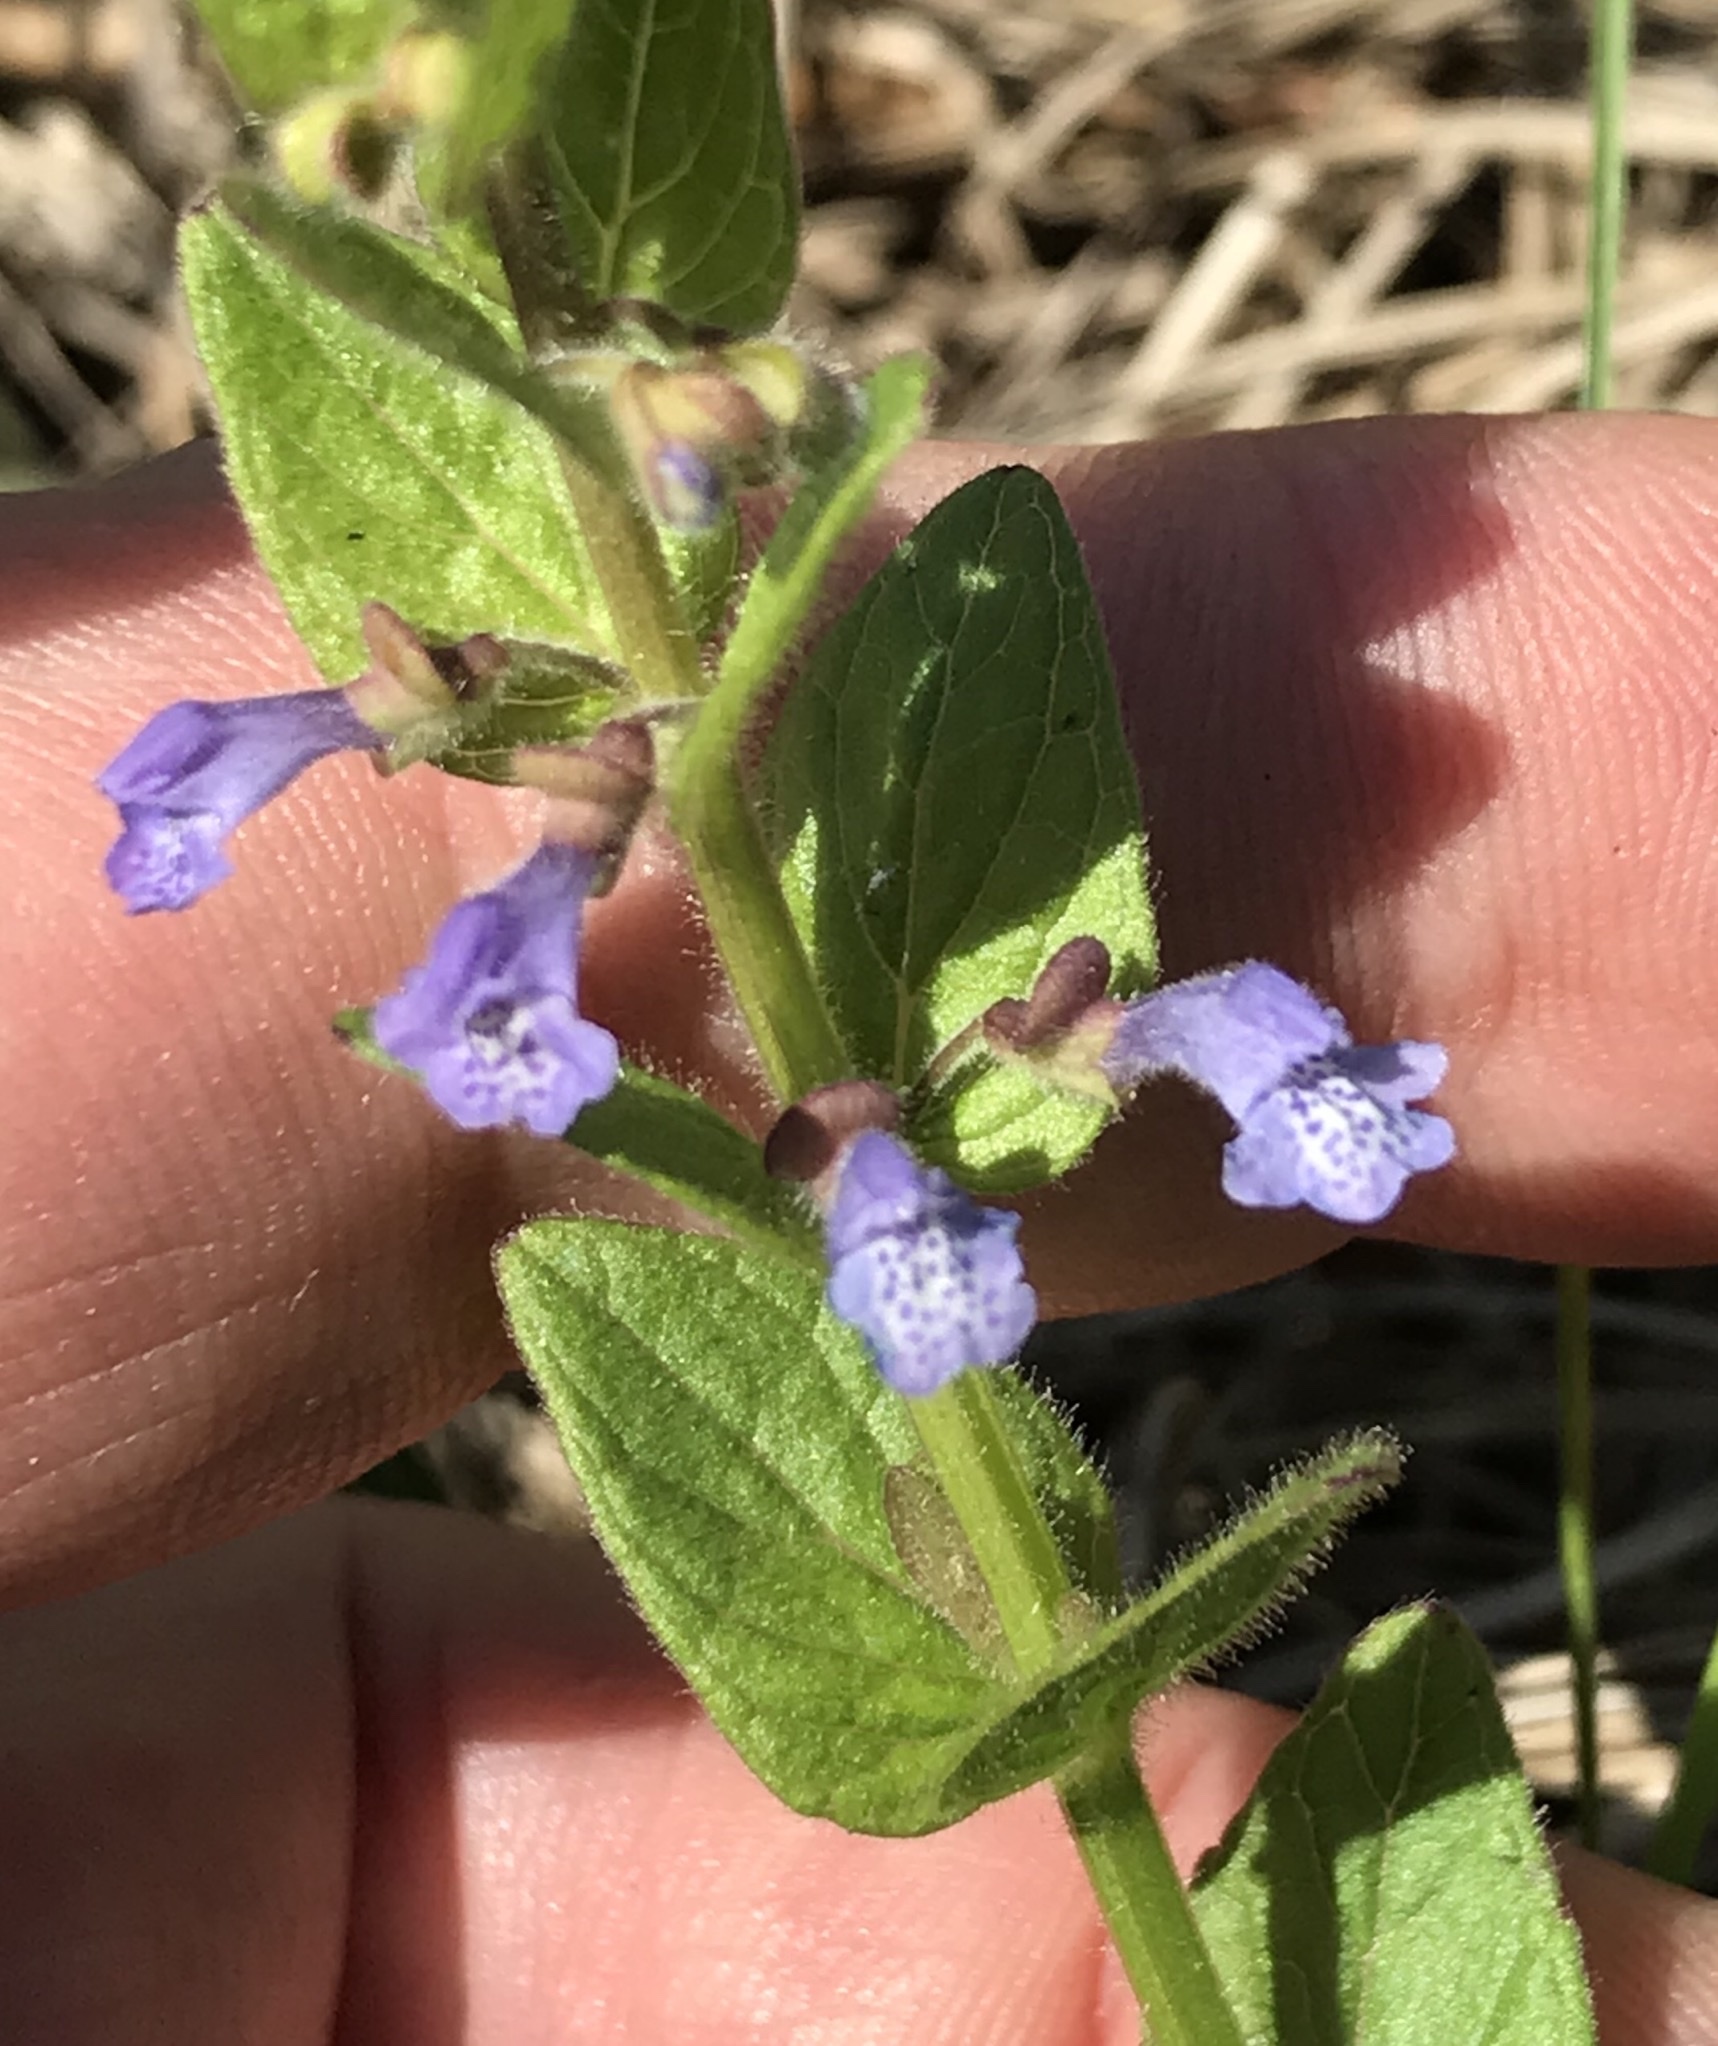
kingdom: Plantae
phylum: Tracheophyta
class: Magnoliopsida
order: Lamiales
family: Lamiaceae
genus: Scutellaria
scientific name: Scutellaria parvula
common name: Little scullcap
